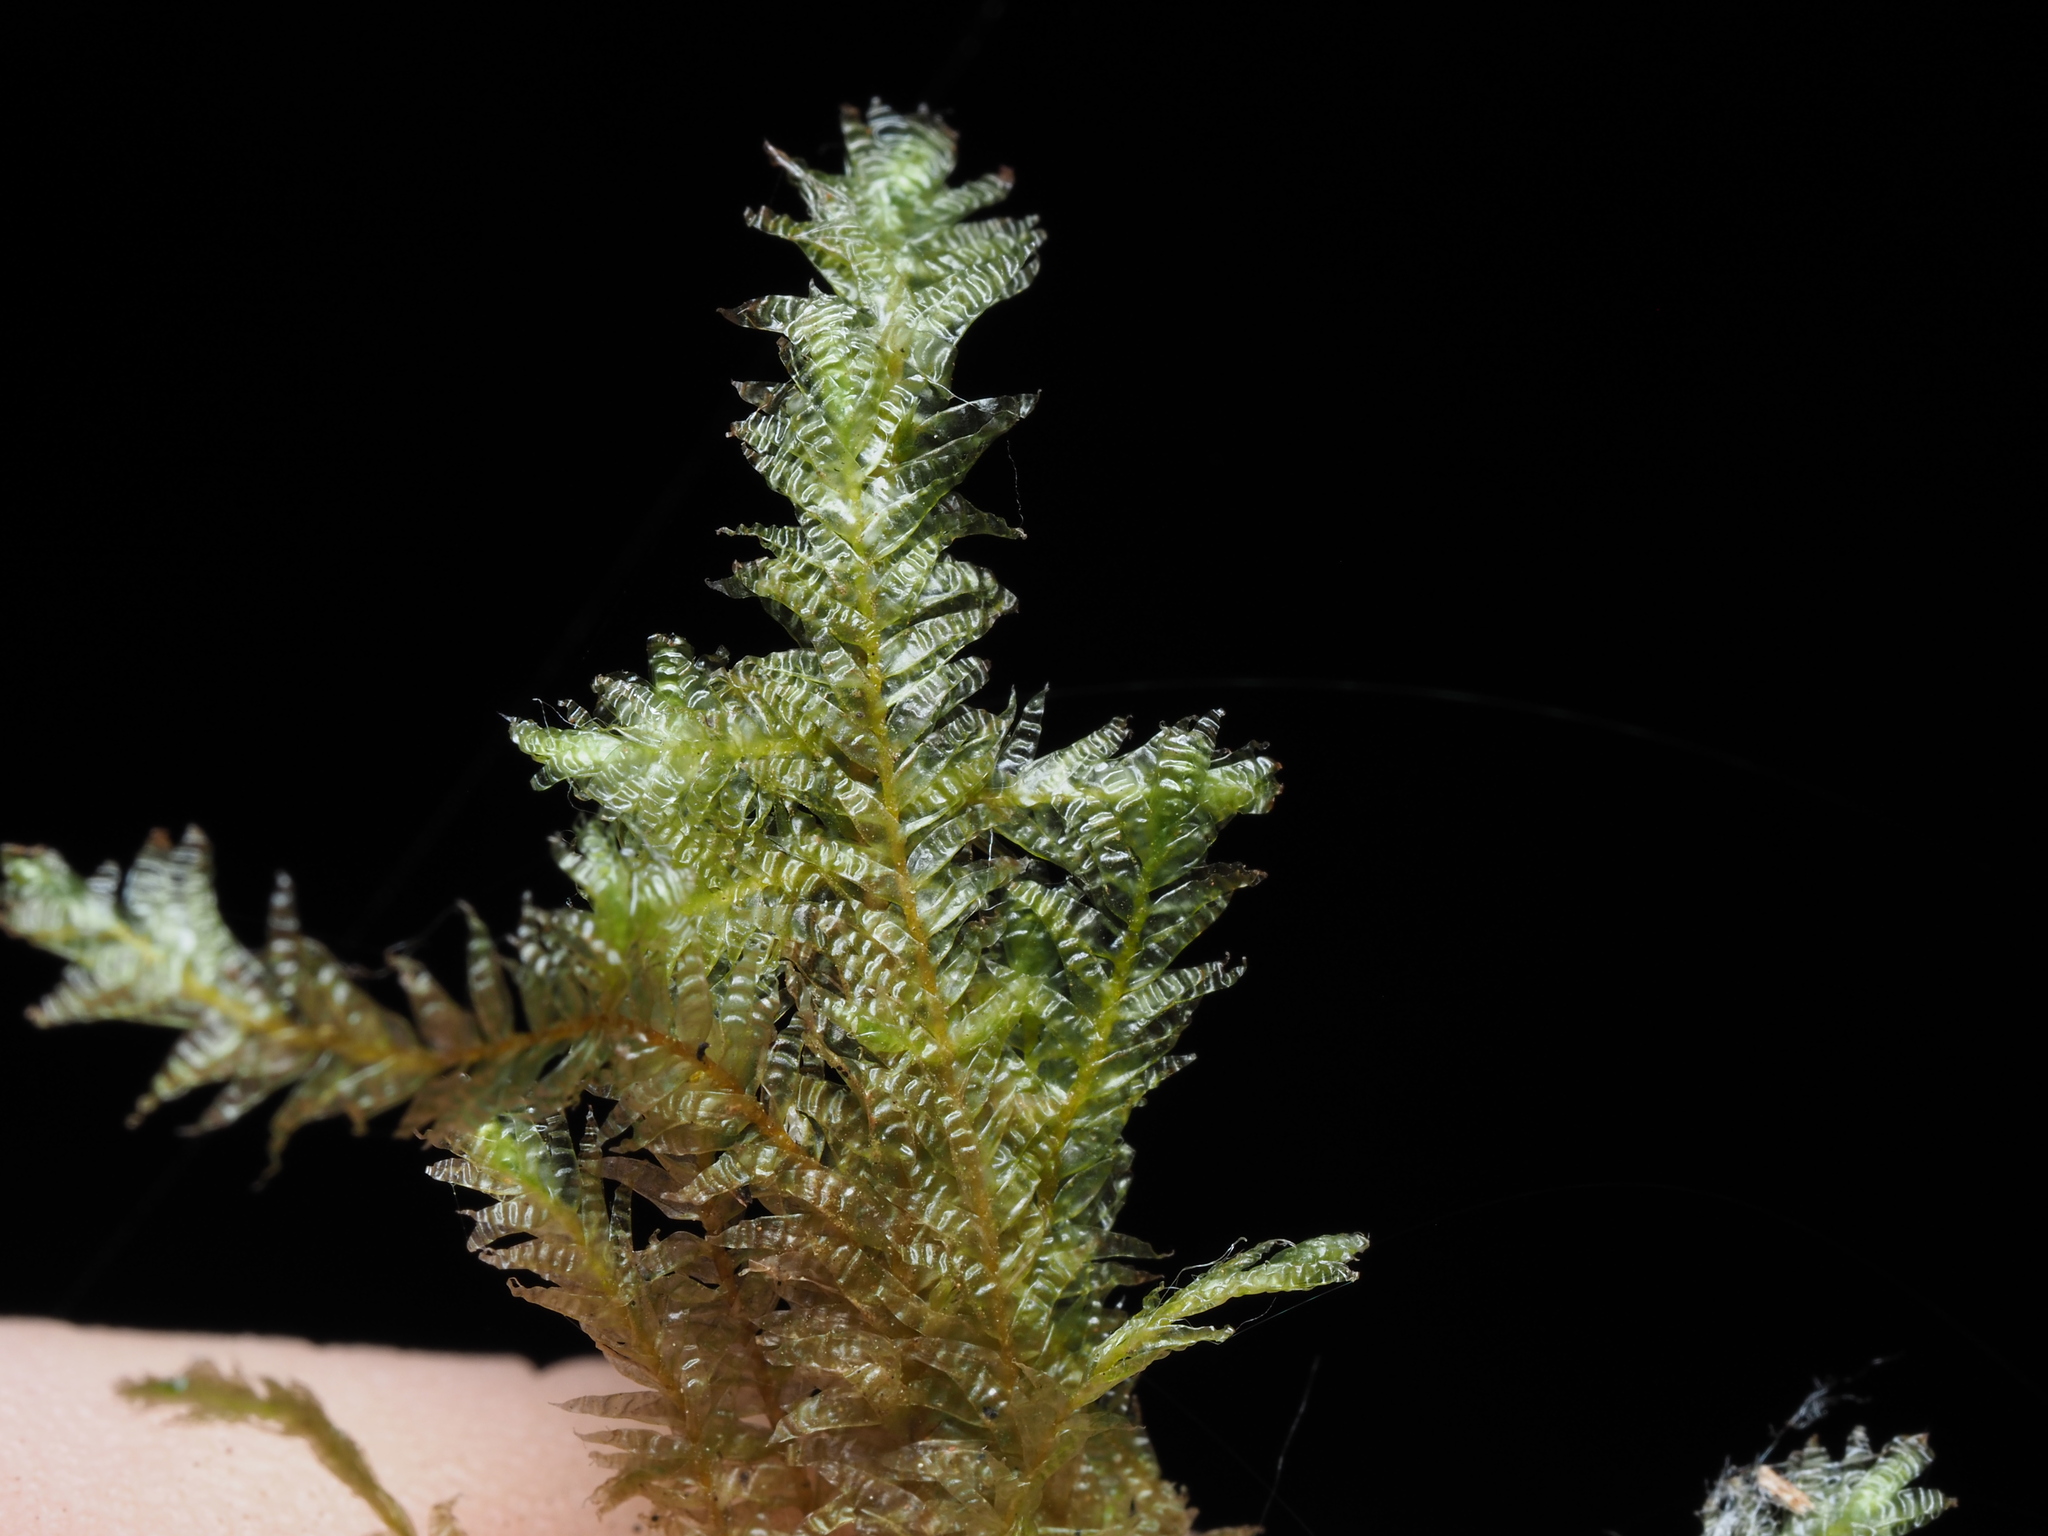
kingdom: Plantae
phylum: Bryophyta
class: Bryopsida
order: Hypnales
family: Neckeraceae
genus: Neckera
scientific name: Neckera douglasii
